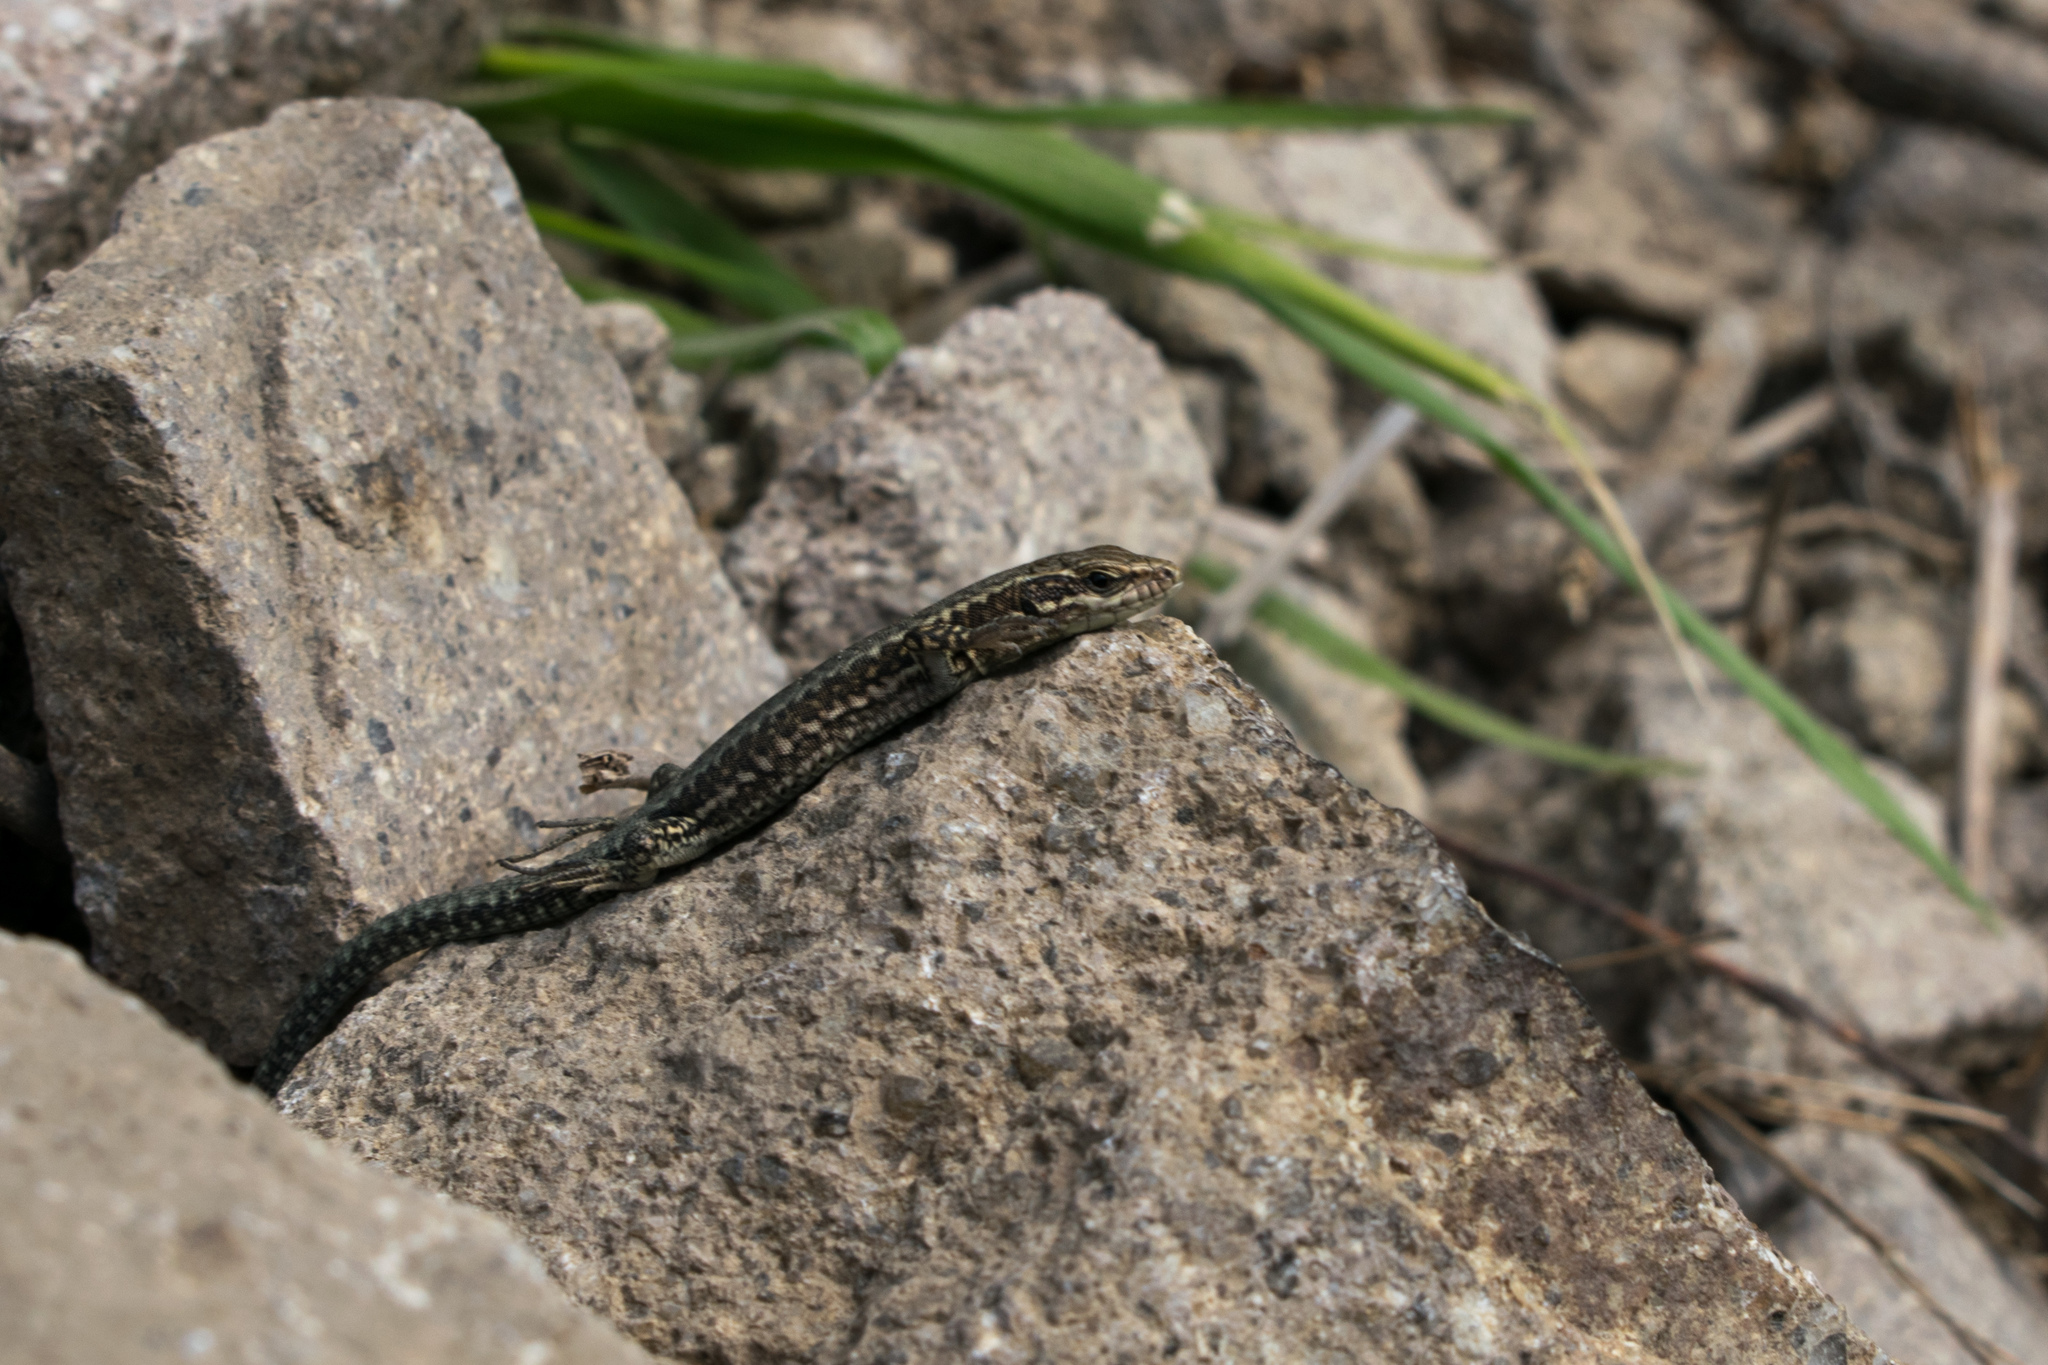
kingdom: Animalia
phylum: Chordata
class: Squamata
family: Lacertidae
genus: Podarcis
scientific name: Podarcis muralis
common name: Common wall lizard
